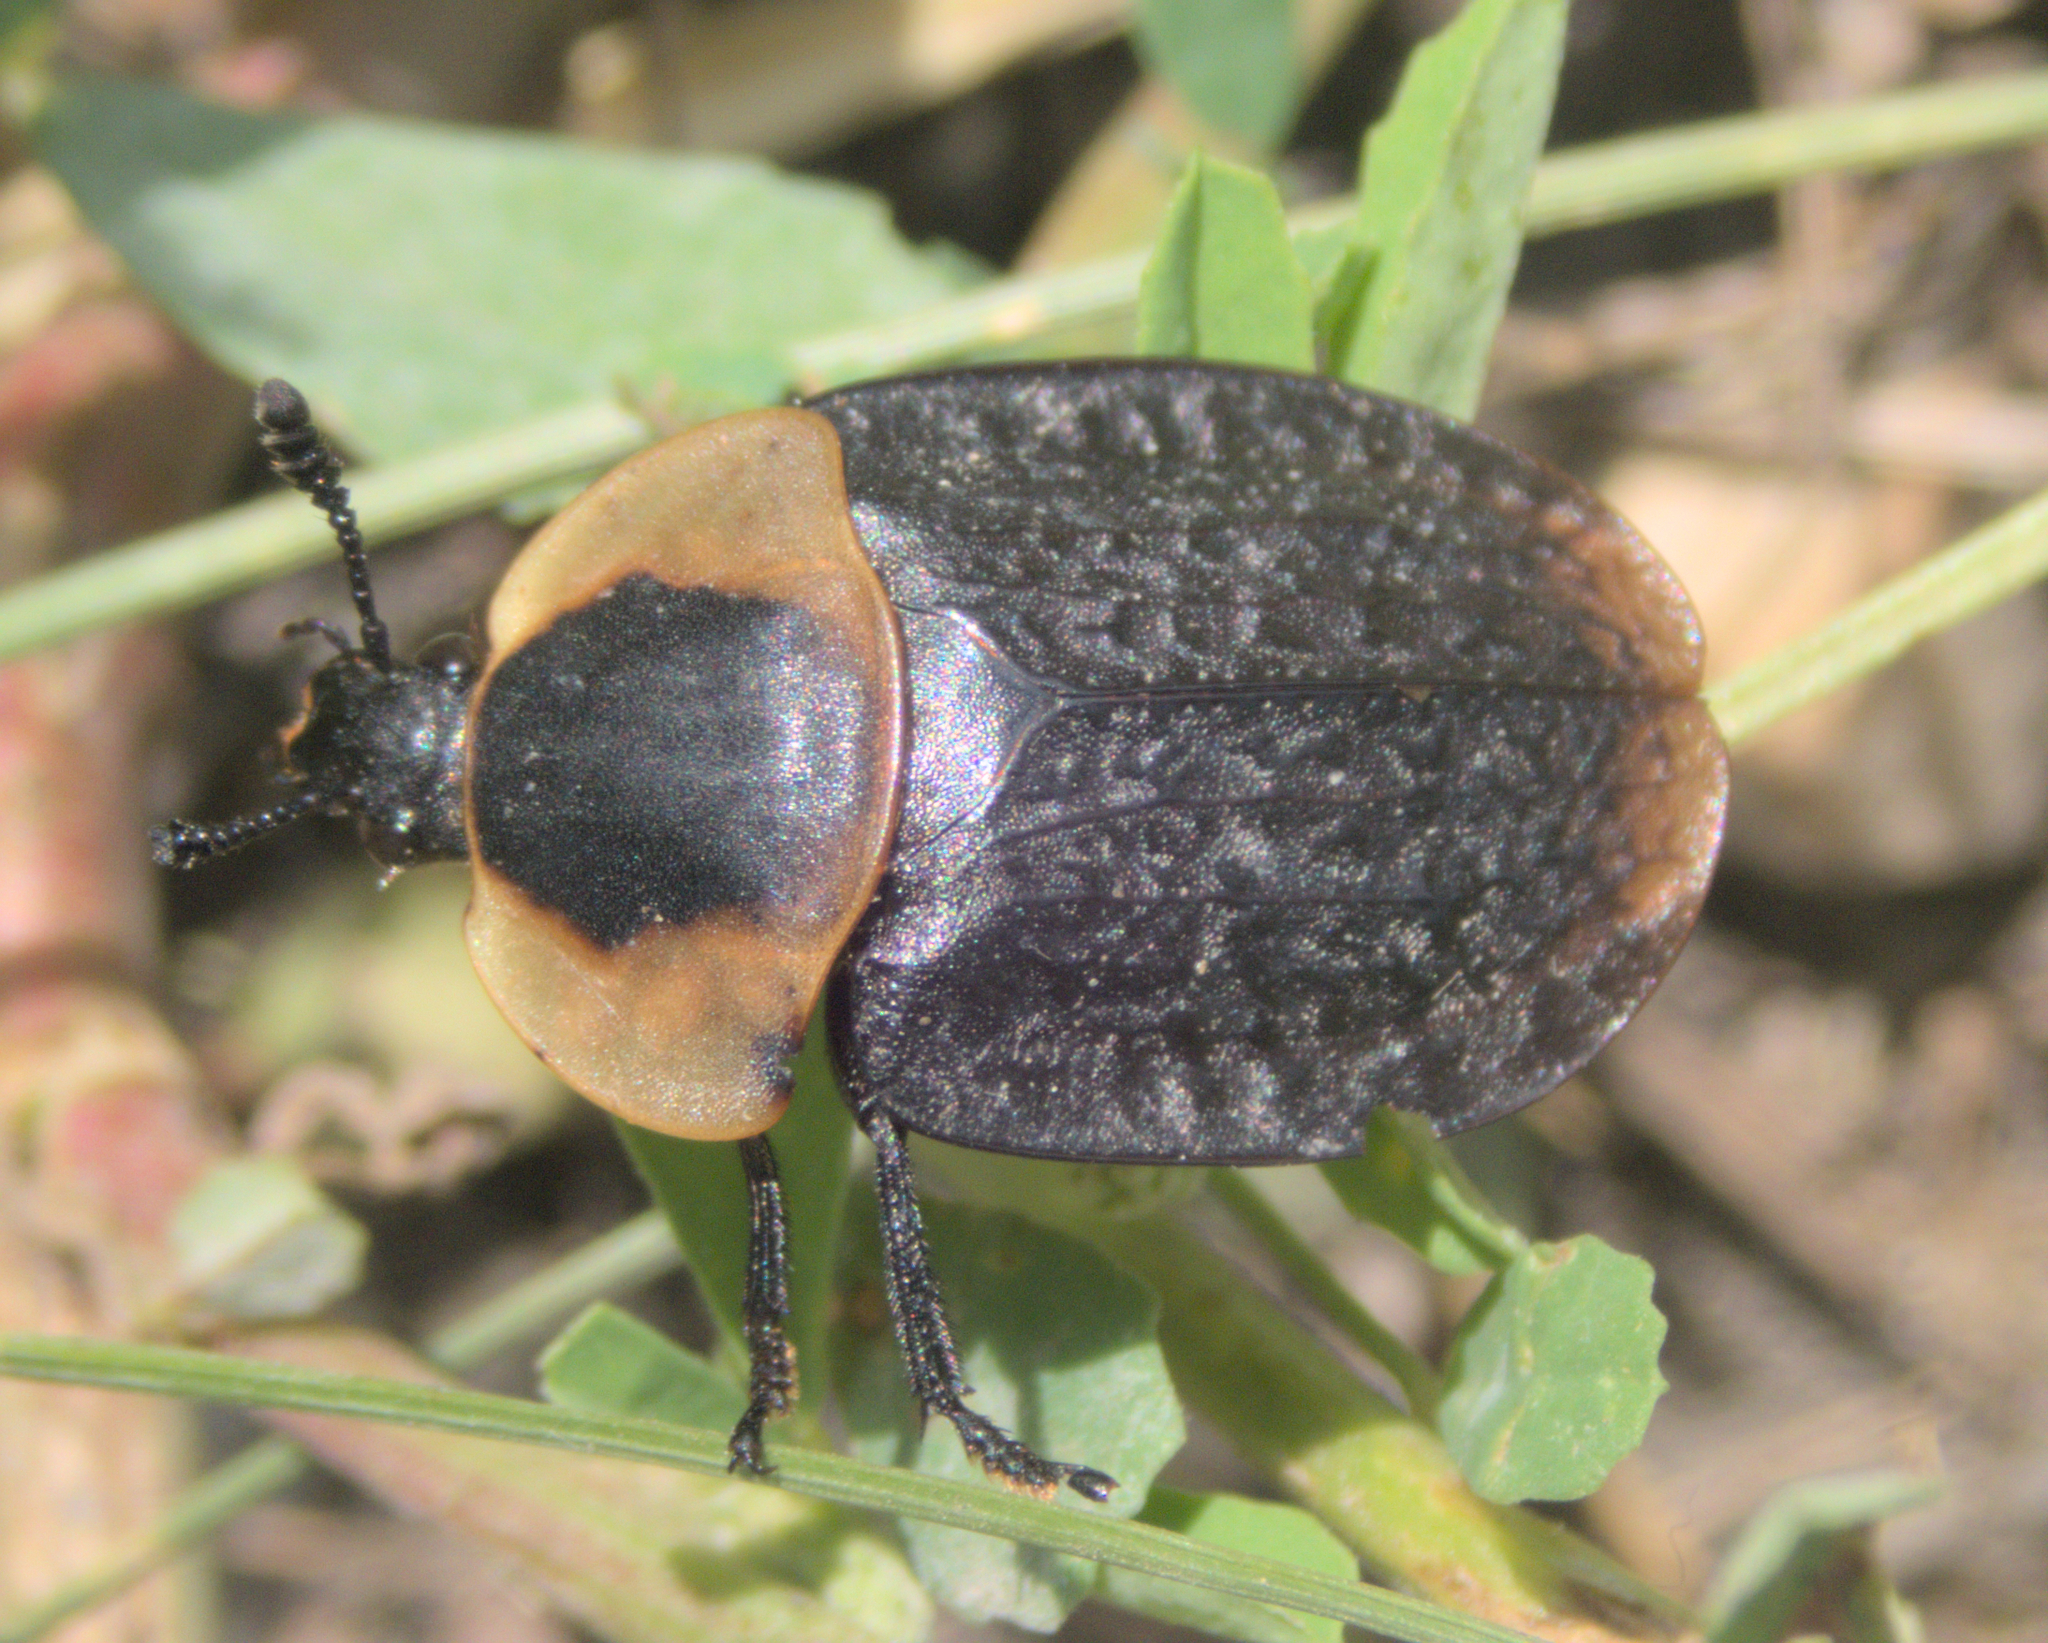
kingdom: Animalia
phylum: Arthropoda
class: Insecta
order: Coleoptera
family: Staphylinidae
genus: Necrophila
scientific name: Necrophila americana
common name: American carrion beetle
